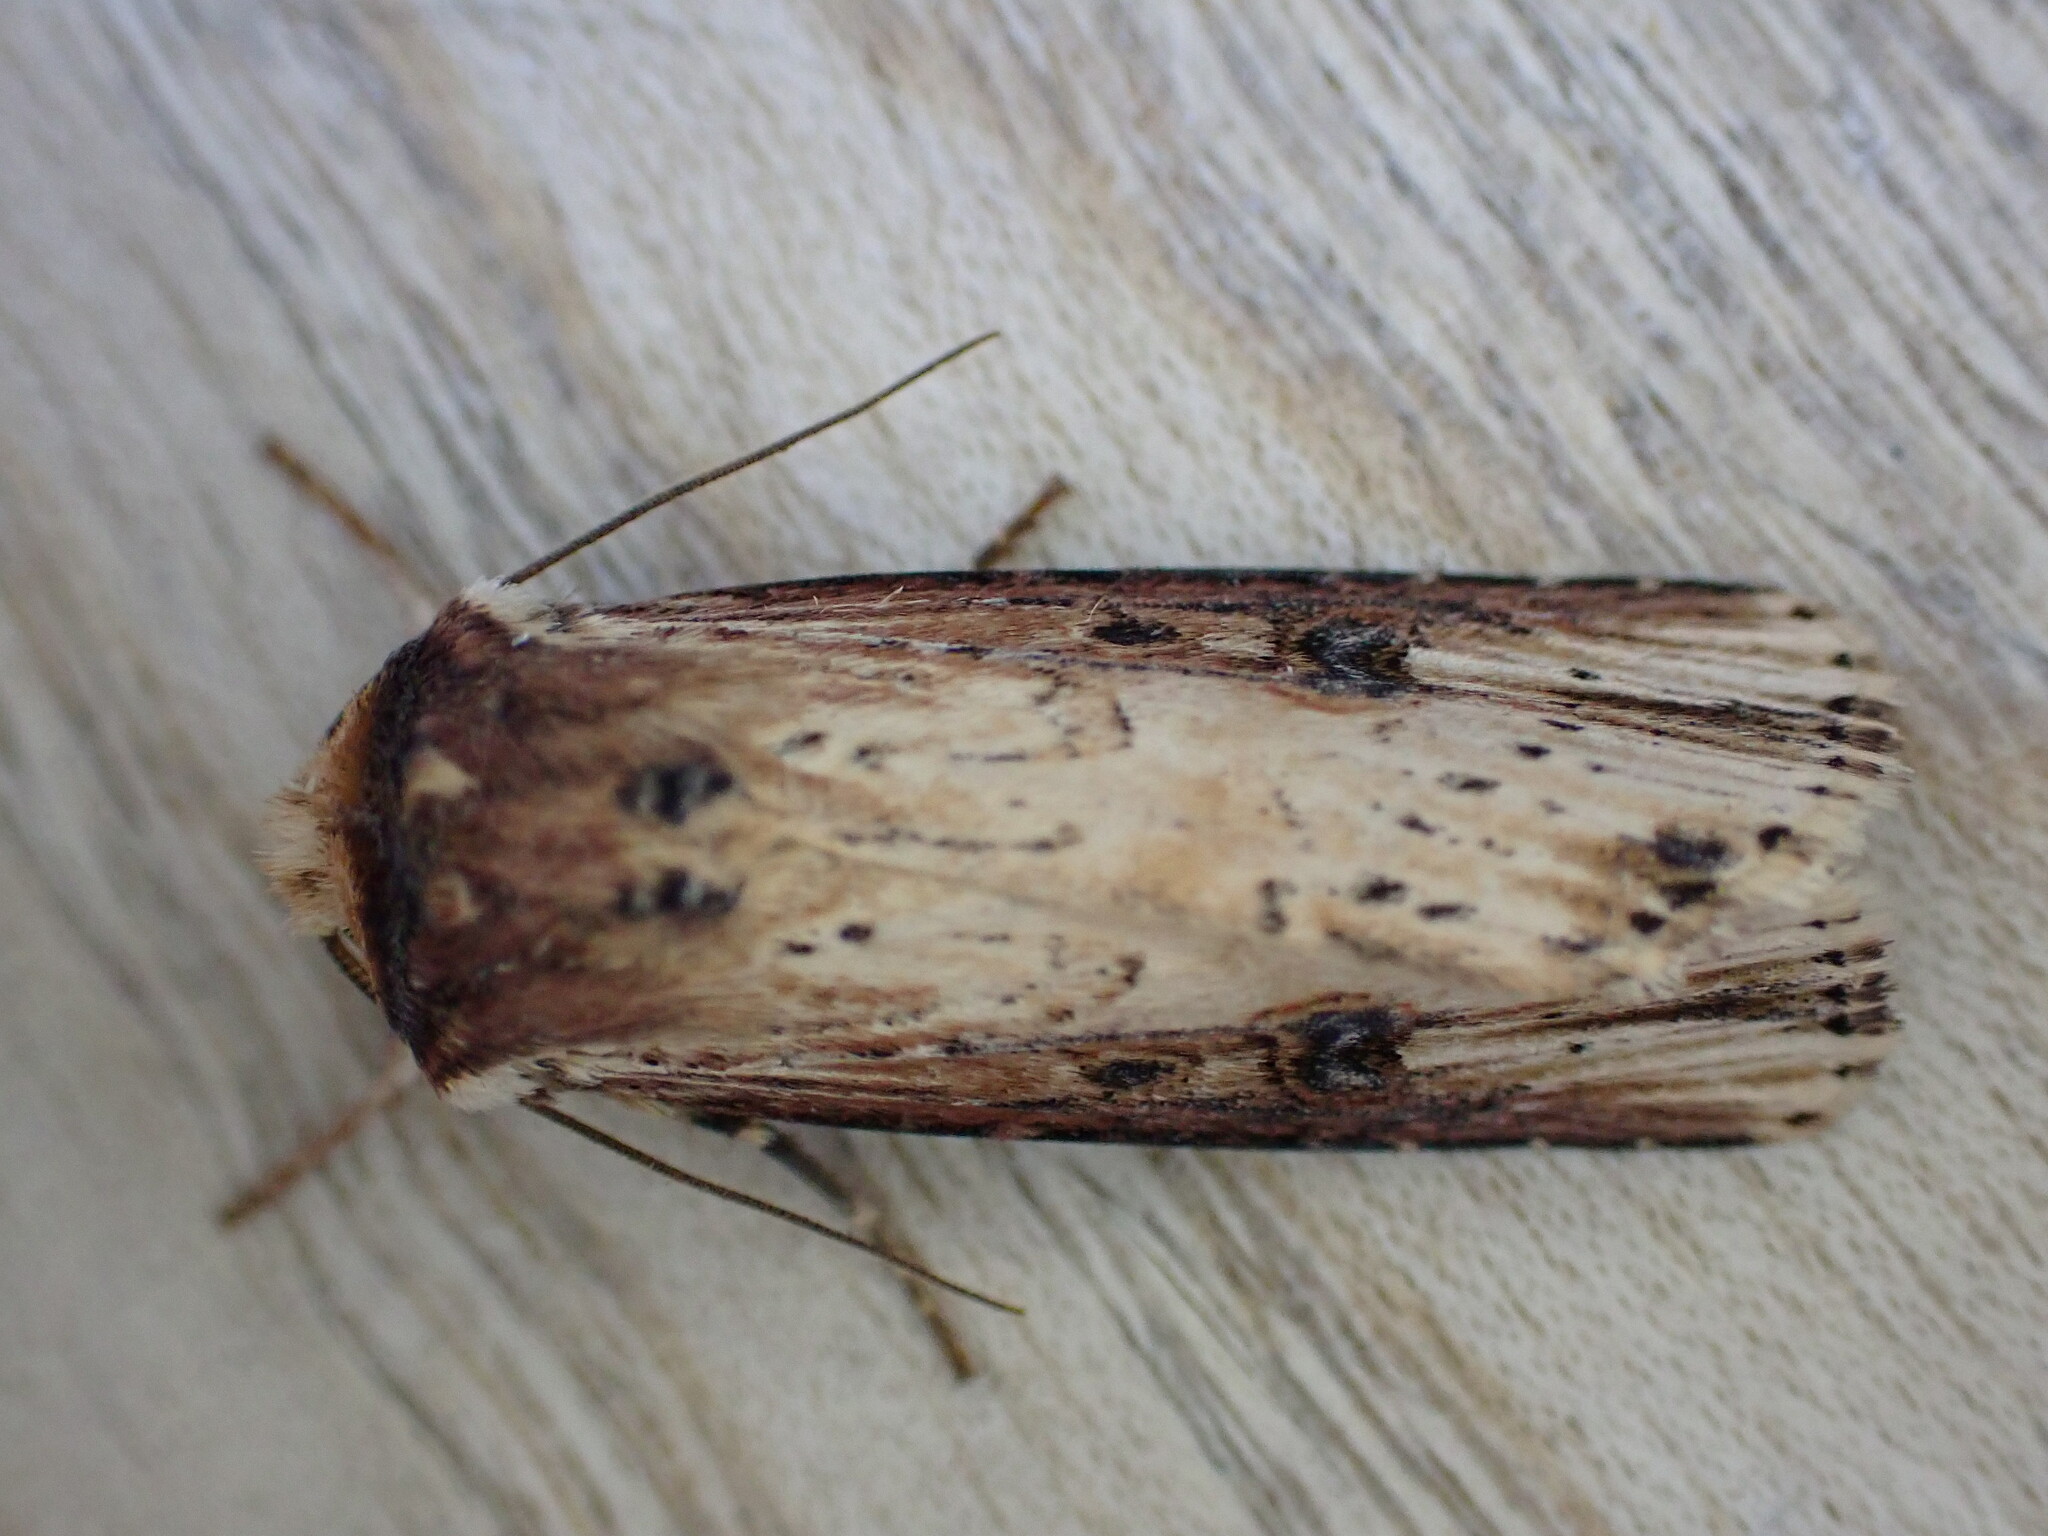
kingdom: Animalia
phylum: Arthropoda
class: Insecta
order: Lepidoptera
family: Noctuidae
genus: Axylia
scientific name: Axylia putris
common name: Flame
